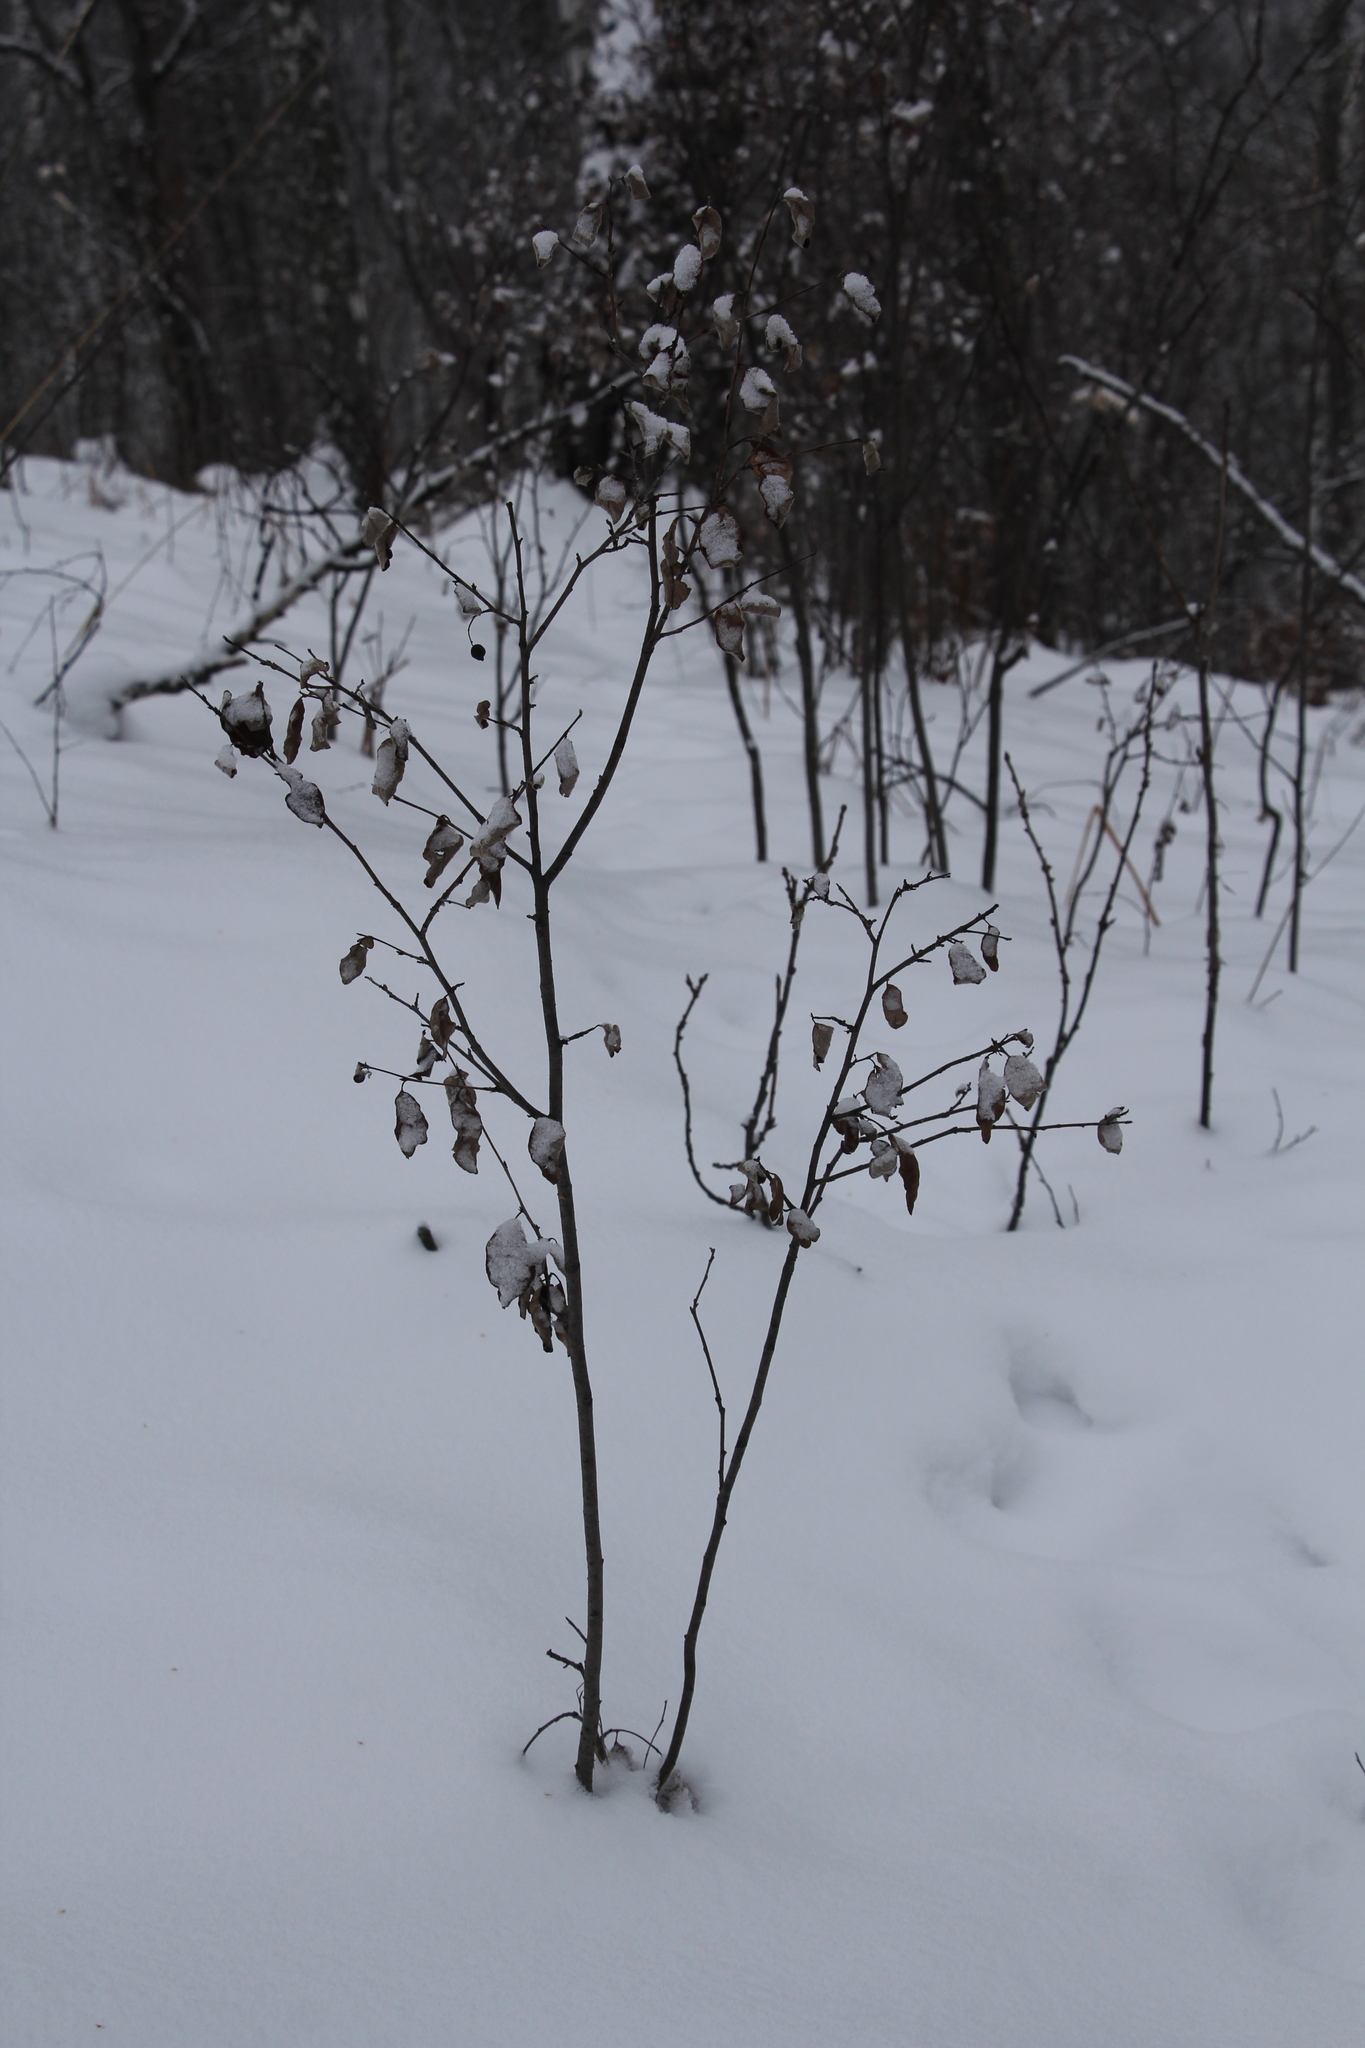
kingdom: Plantae
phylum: Tracheophyta
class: Magnoliopsida
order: Rosales
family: Rosaceae
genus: Cotoneaster
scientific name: Cotoneaster melanocarpus
